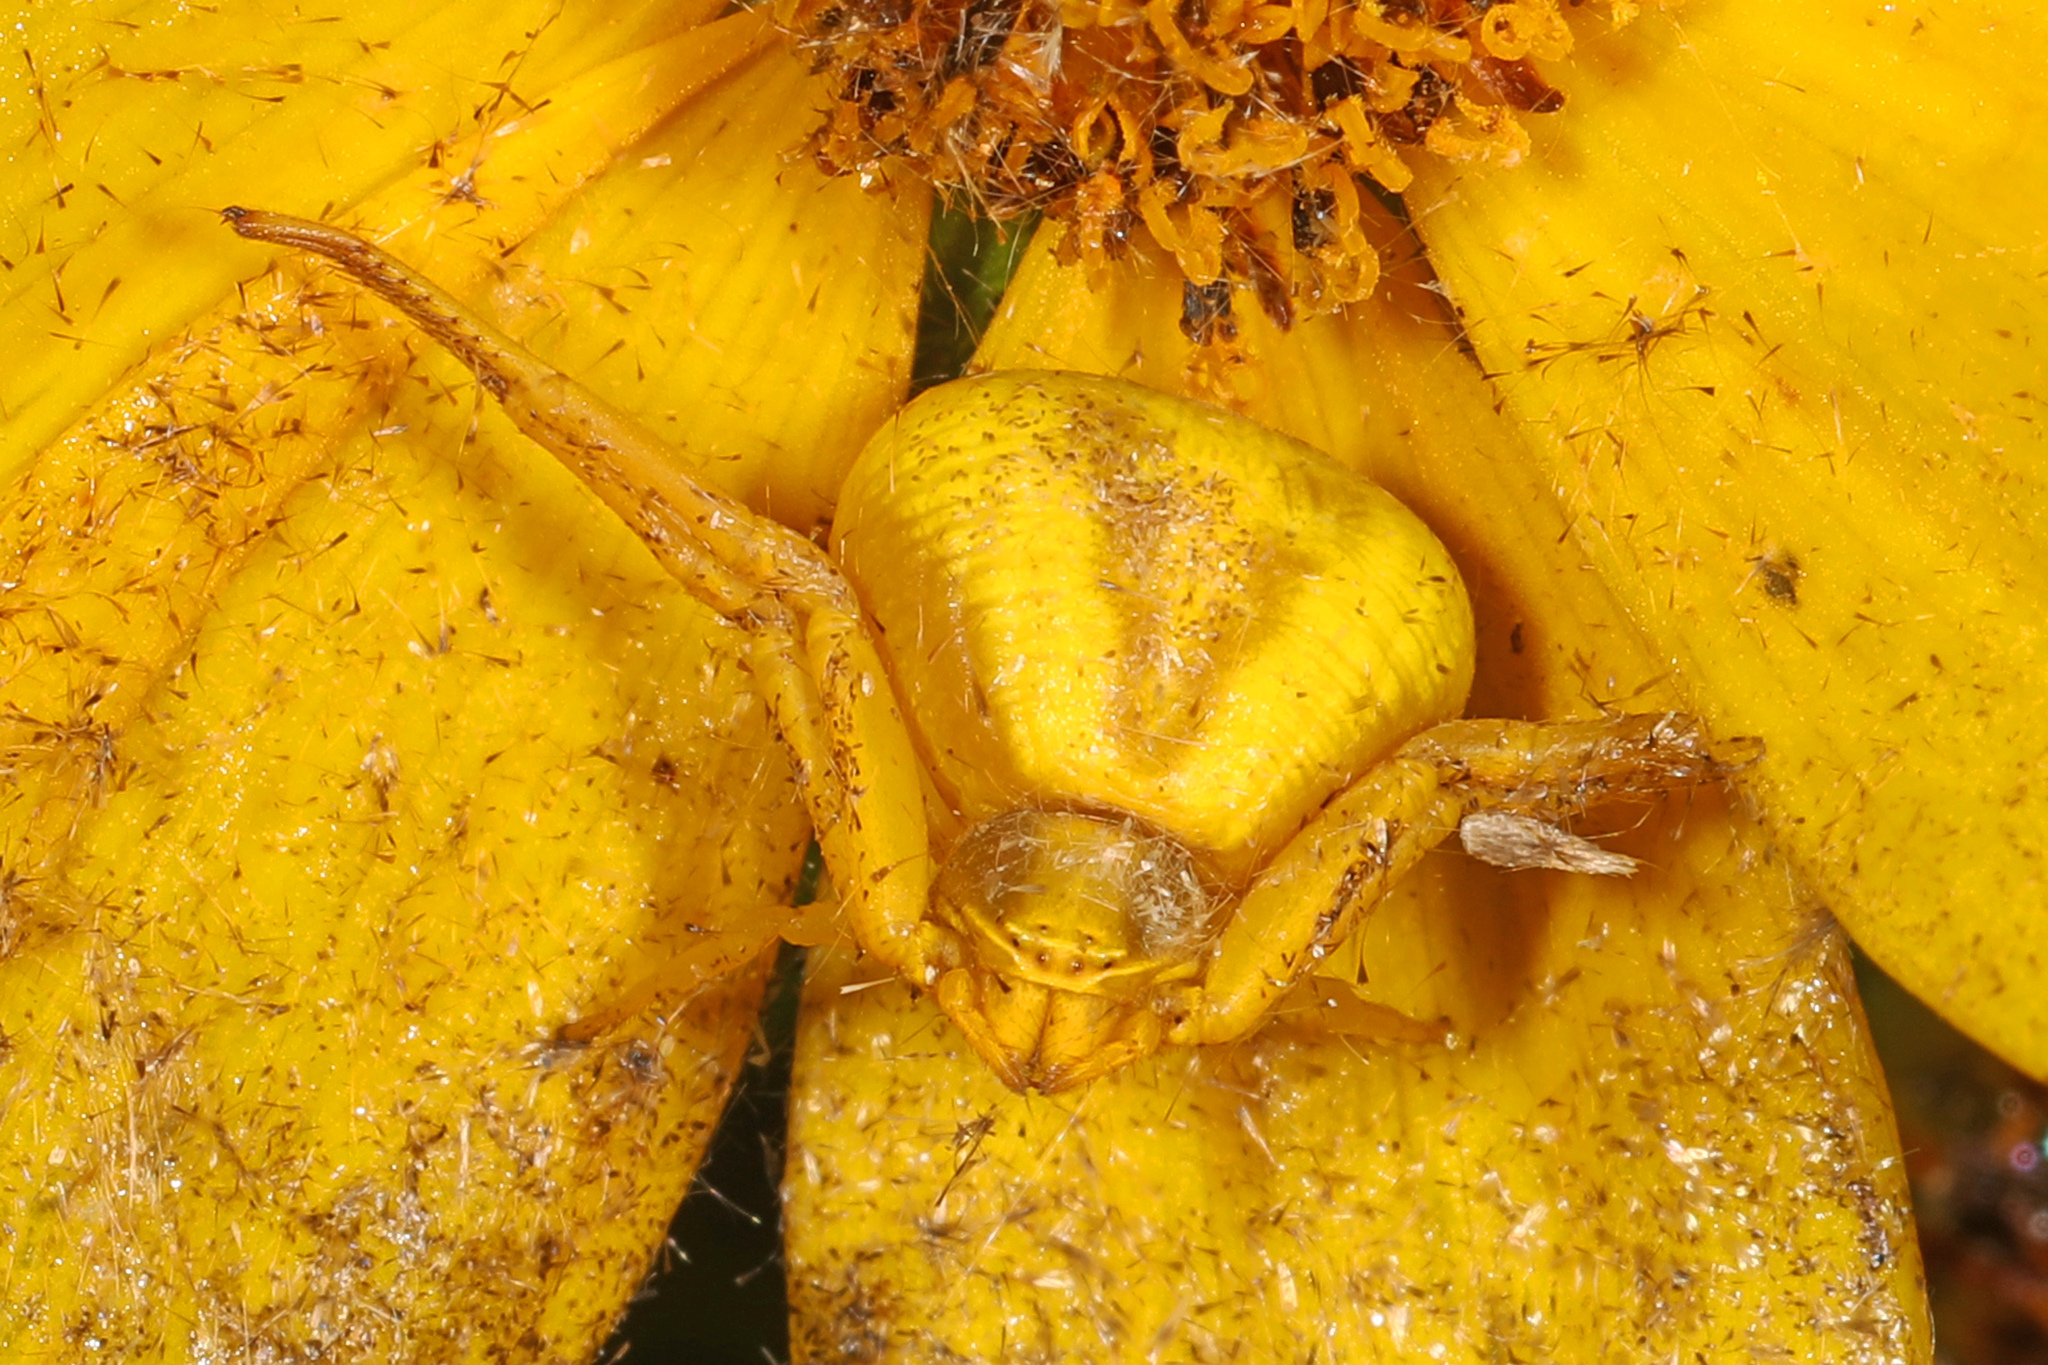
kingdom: Animalia
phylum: Arthropoda
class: Arachnida
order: Araneae
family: Thomisidae
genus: Misumenoides
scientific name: Misumenoides formosipes
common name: White-banded crab spider
